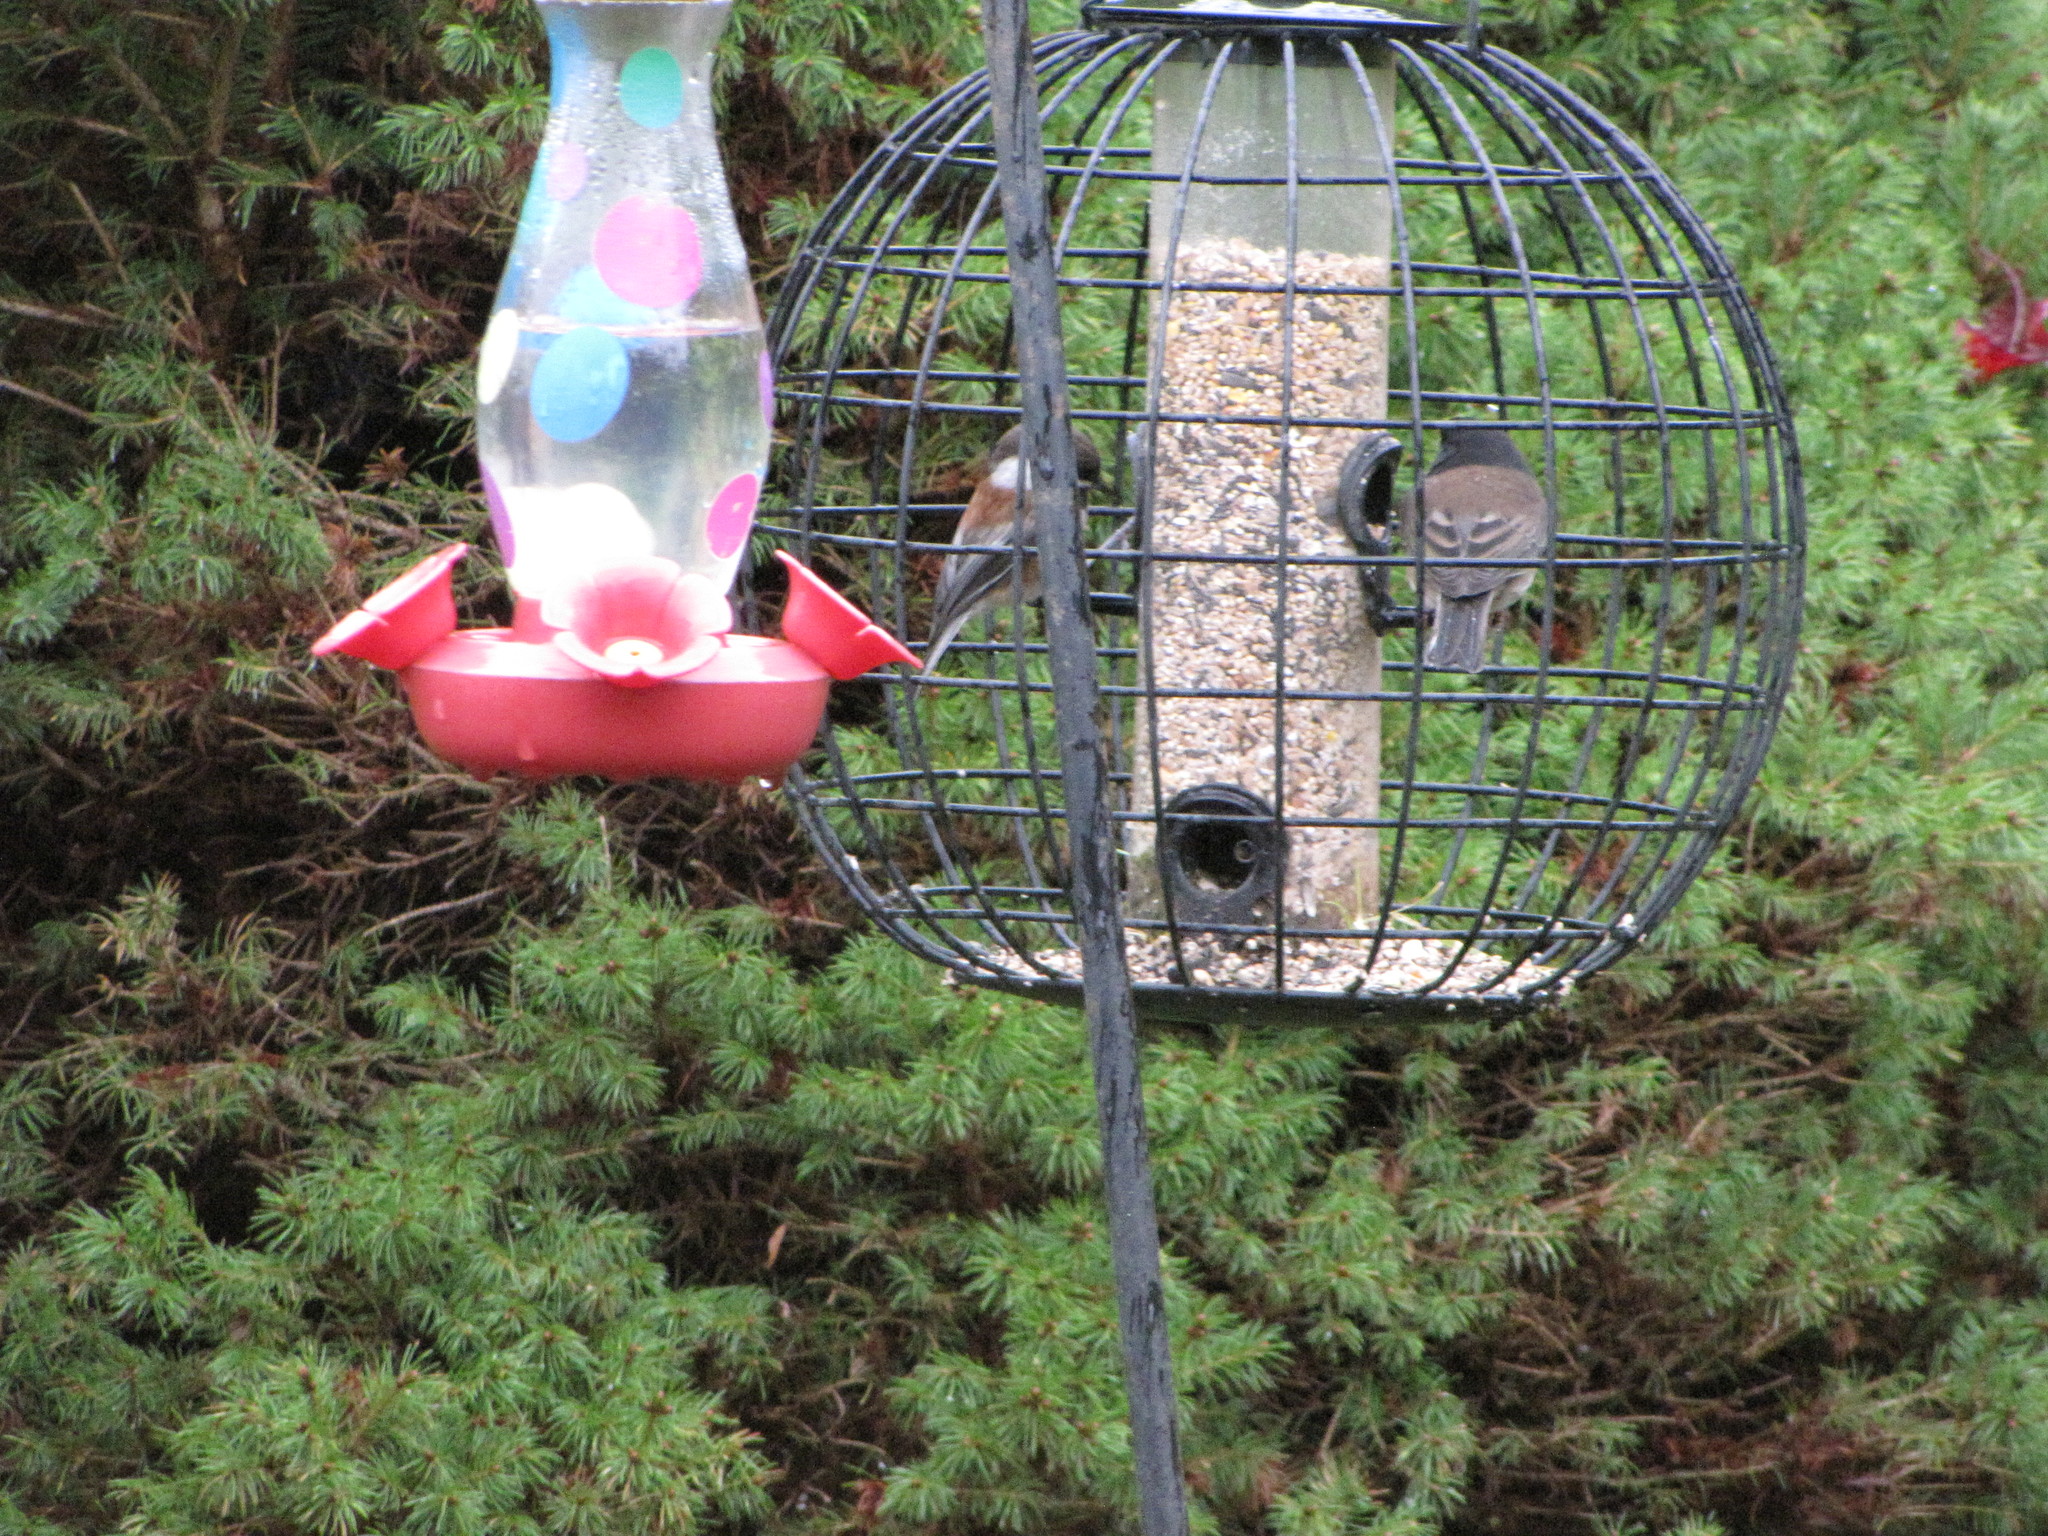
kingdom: Animalia
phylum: Chordata
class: Aves
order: Passeriformes
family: Passerellidae
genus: Junco
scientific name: Junco hyemalis
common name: Dark-eyed junco
